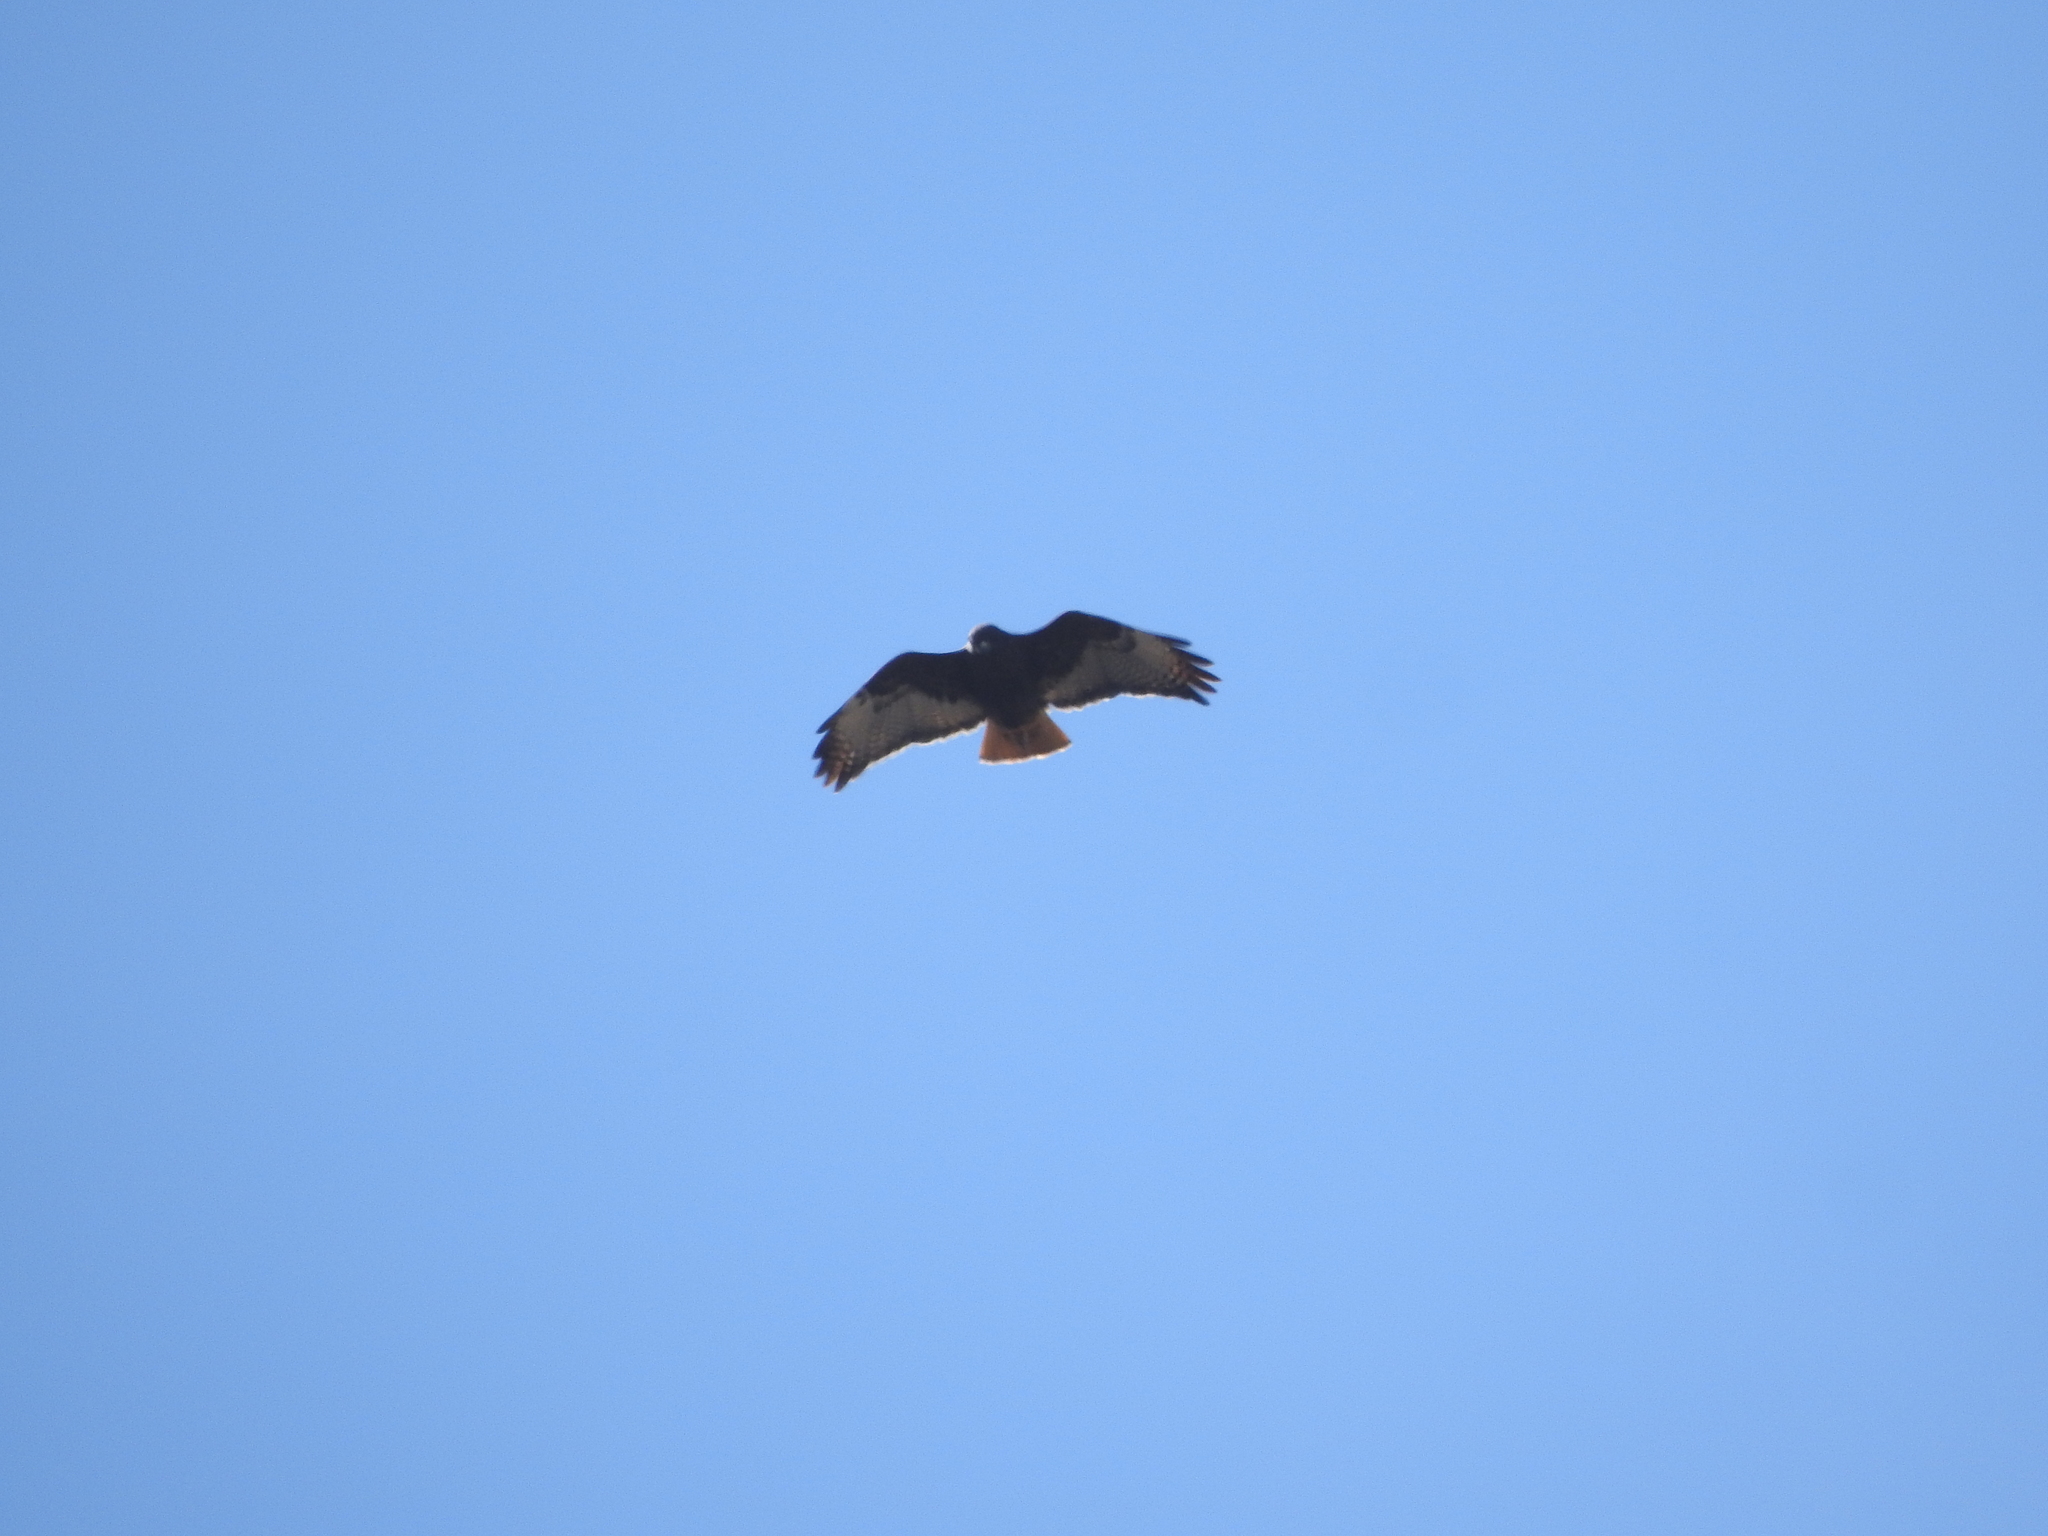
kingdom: Animalia
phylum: Chordata
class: Aves
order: Accipitriformes
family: Accipitridae
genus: Buteo
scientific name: Buteo jamaicensis
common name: Red-tailed hawk
